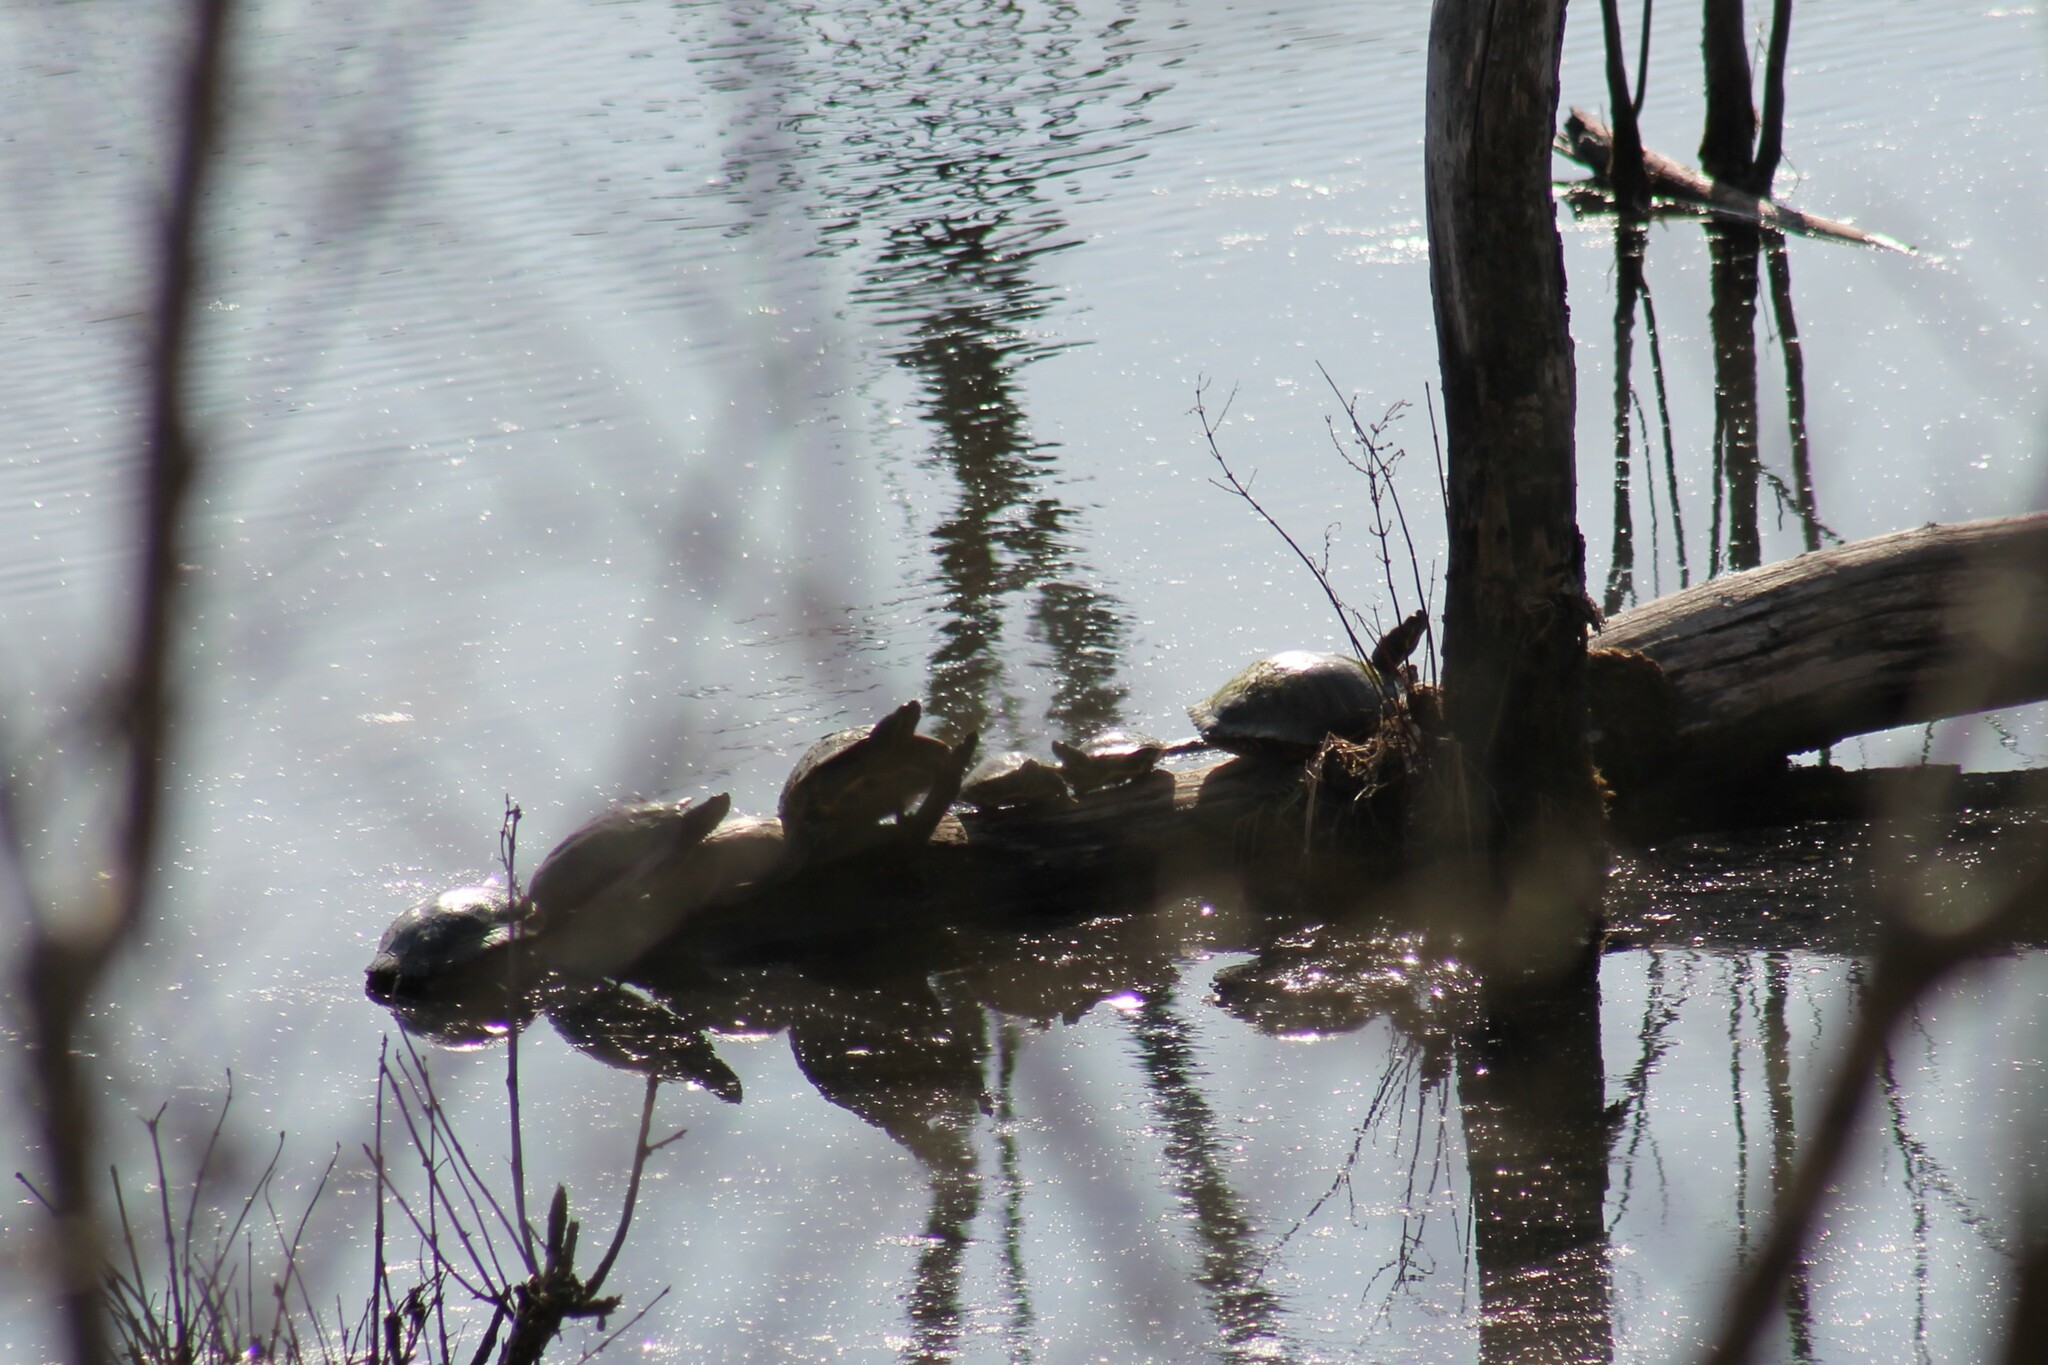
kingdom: Animalia
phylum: Chordata
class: Testudines
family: Emydidae
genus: Trachemys
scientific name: Trachemys scripta
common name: Slider
